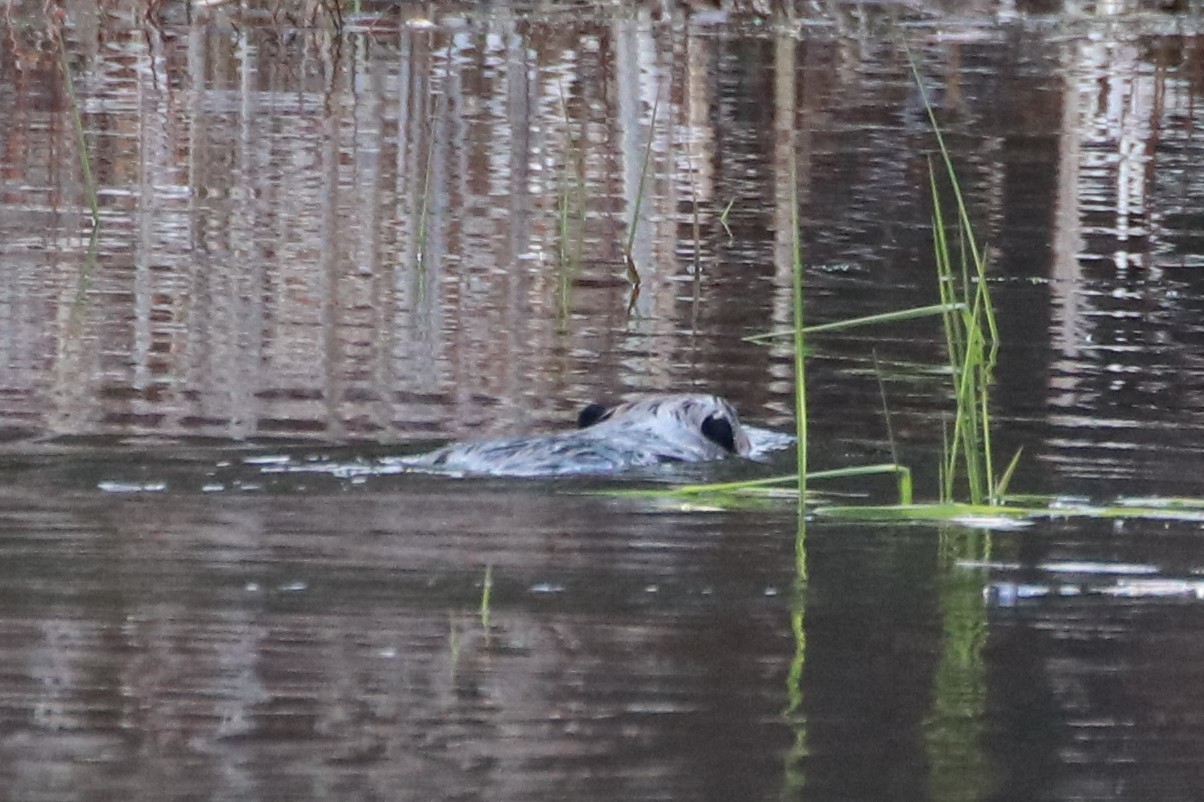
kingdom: Animalia
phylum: Chordata
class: Mammalia
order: Rodentia
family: Castoridae
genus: Castor
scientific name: Castor canadensis
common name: American beaver
